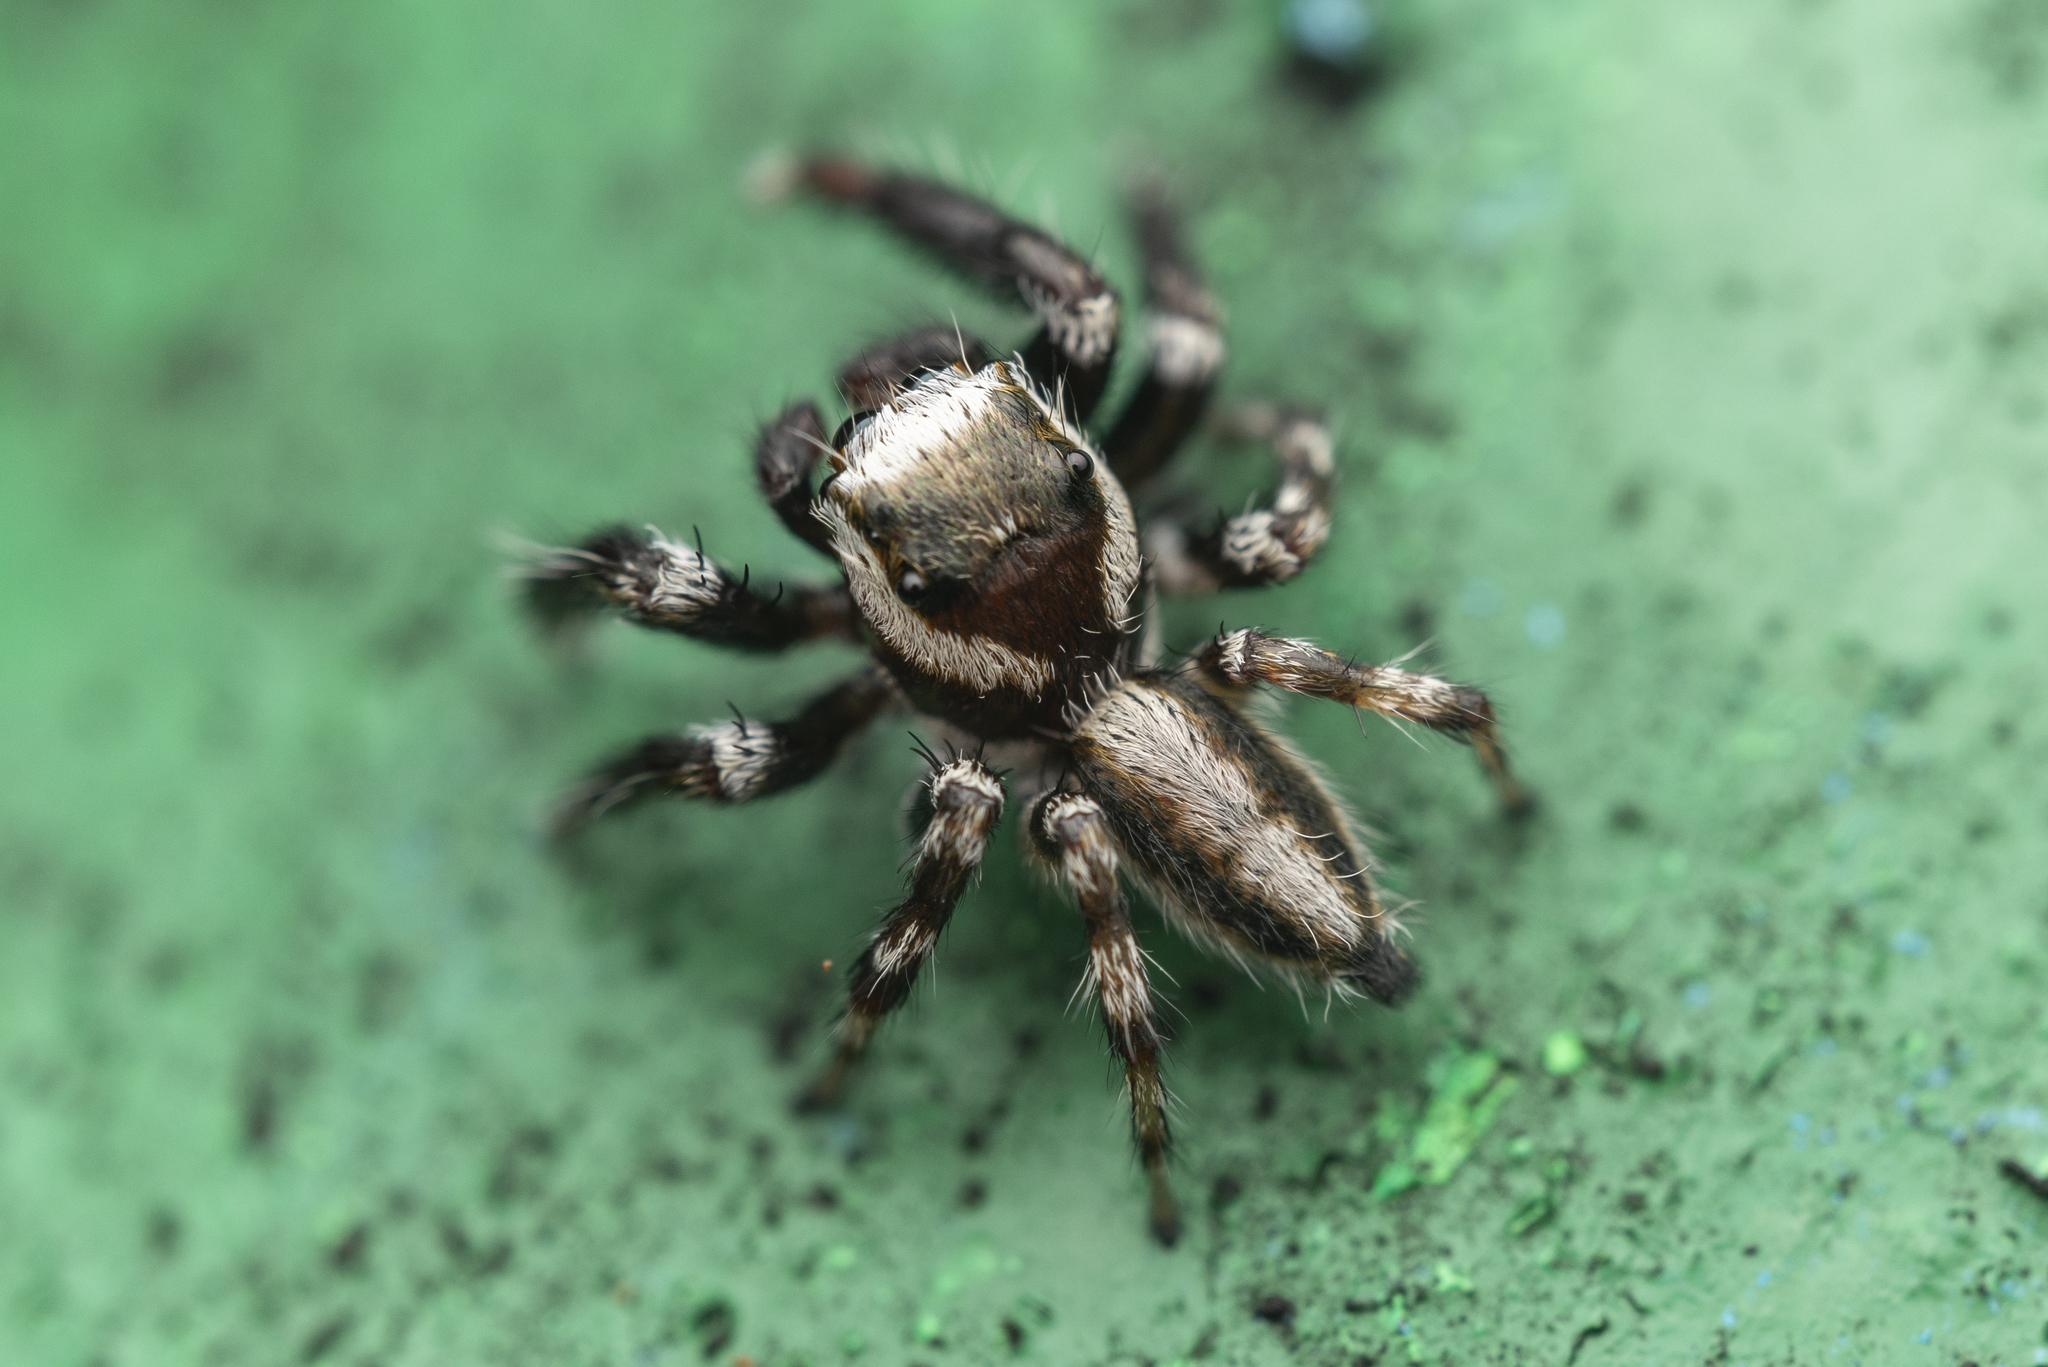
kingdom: Animalia
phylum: Arthropoda
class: Arachnida
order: Araneae
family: Salticidae
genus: Evarcha
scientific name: Evarcha pococki
